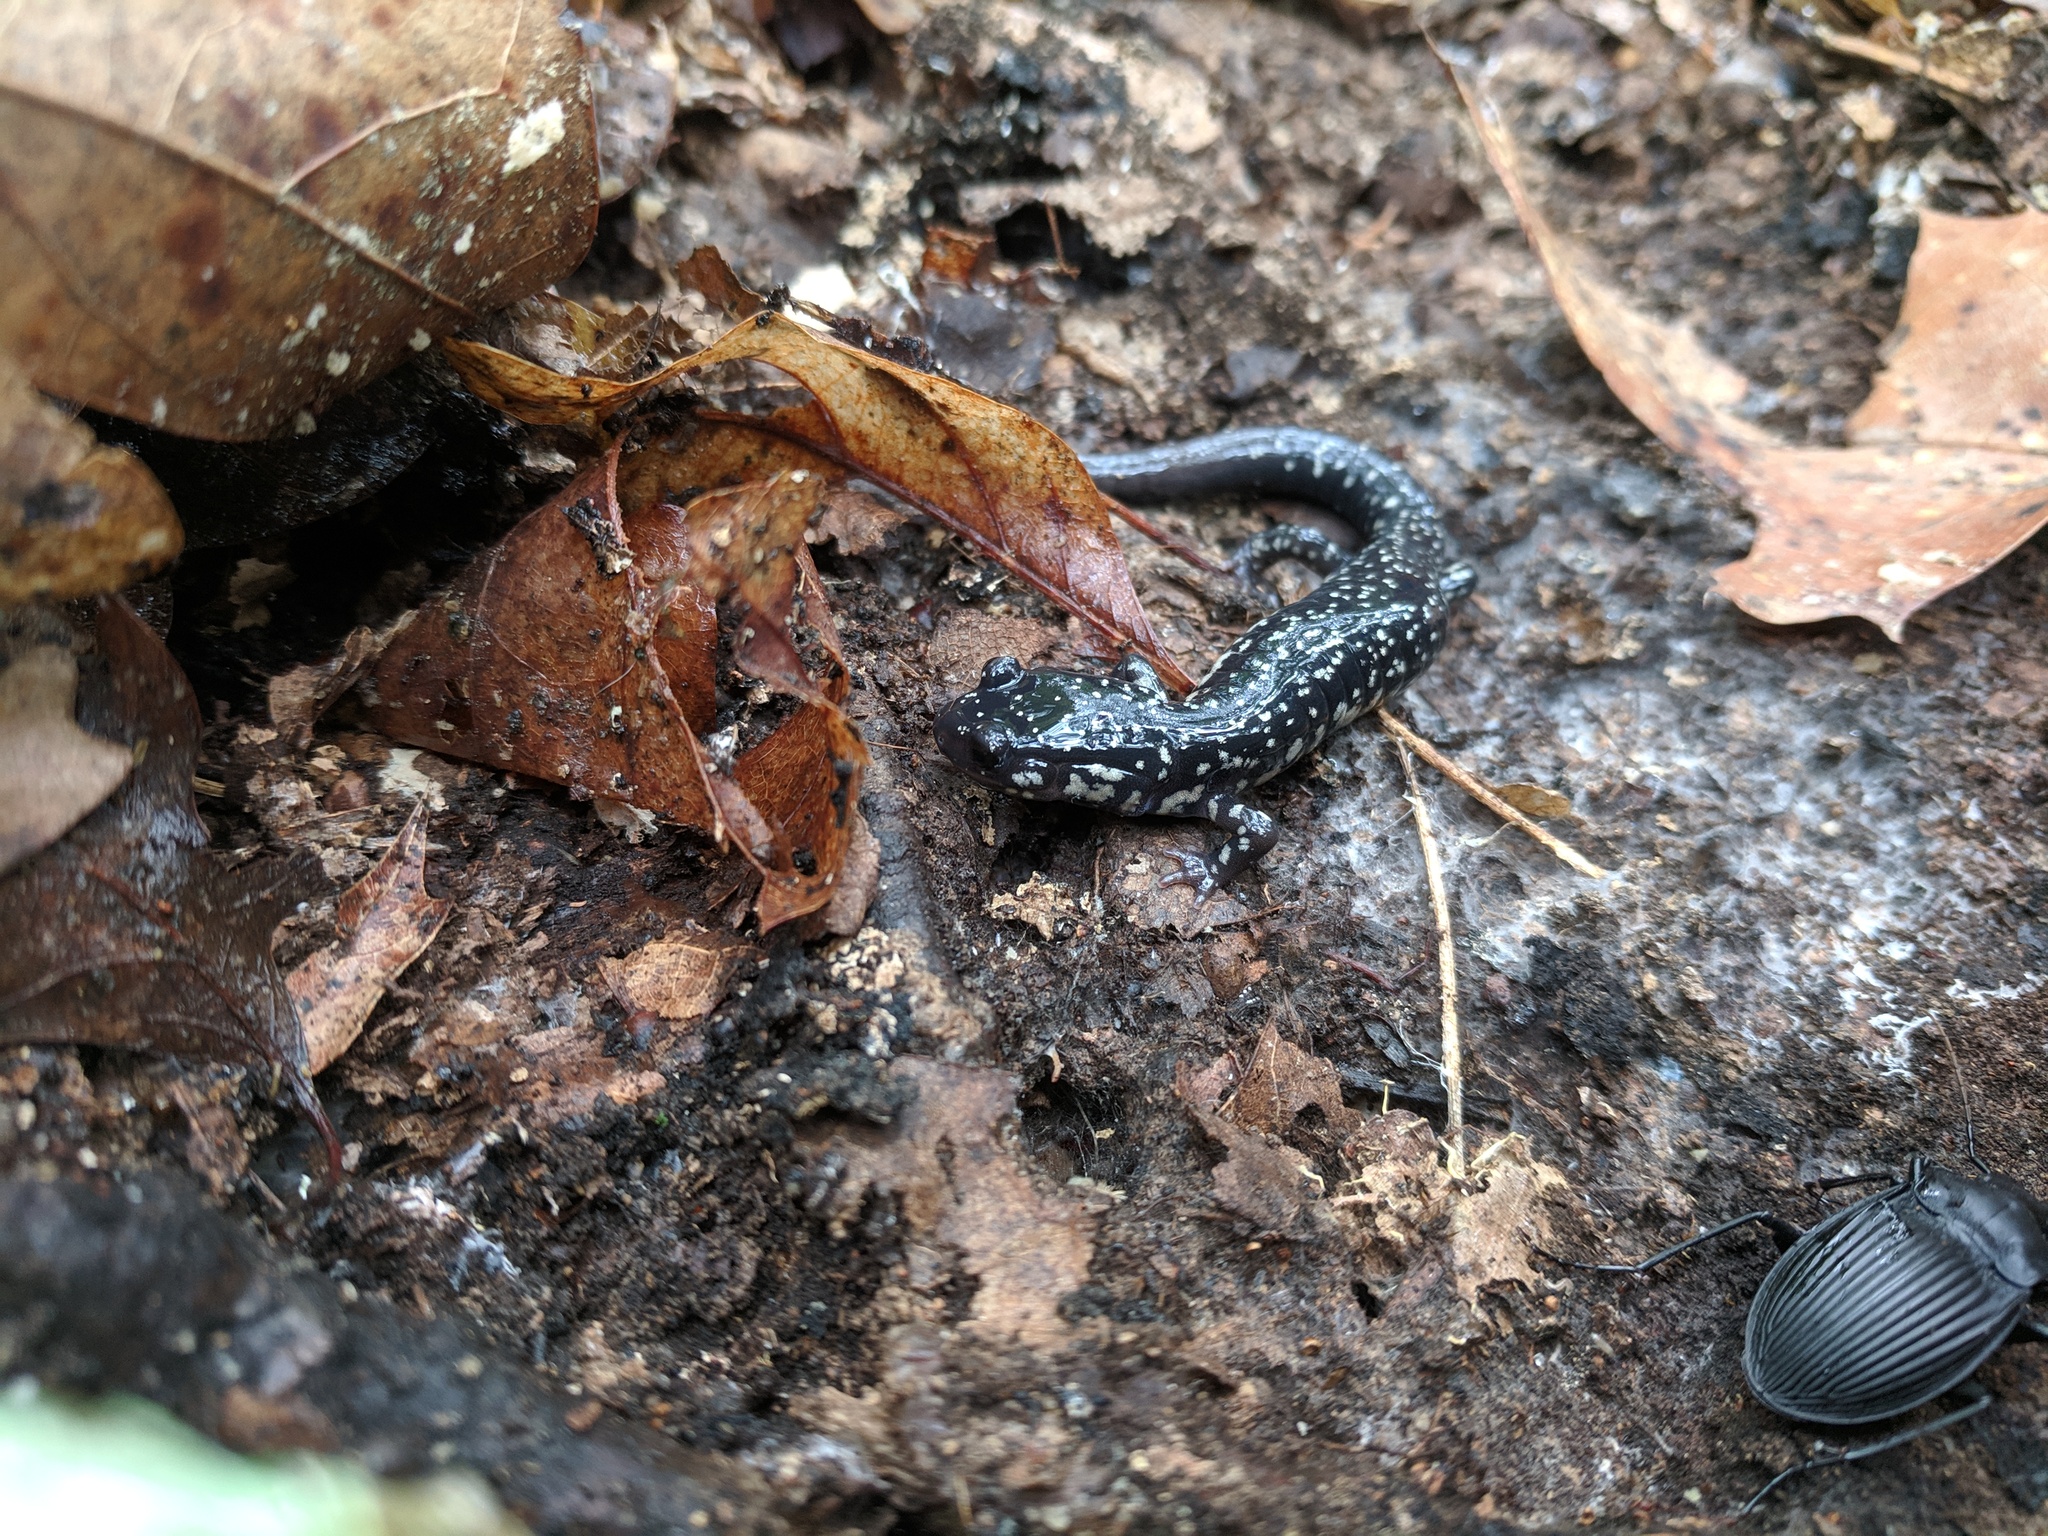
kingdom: Animalia
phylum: Chordata
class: Amphibia
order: Caudata
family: Plethodontidae
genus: Plethodon
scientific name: Plethodon albagula
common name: Western slimy salamander
